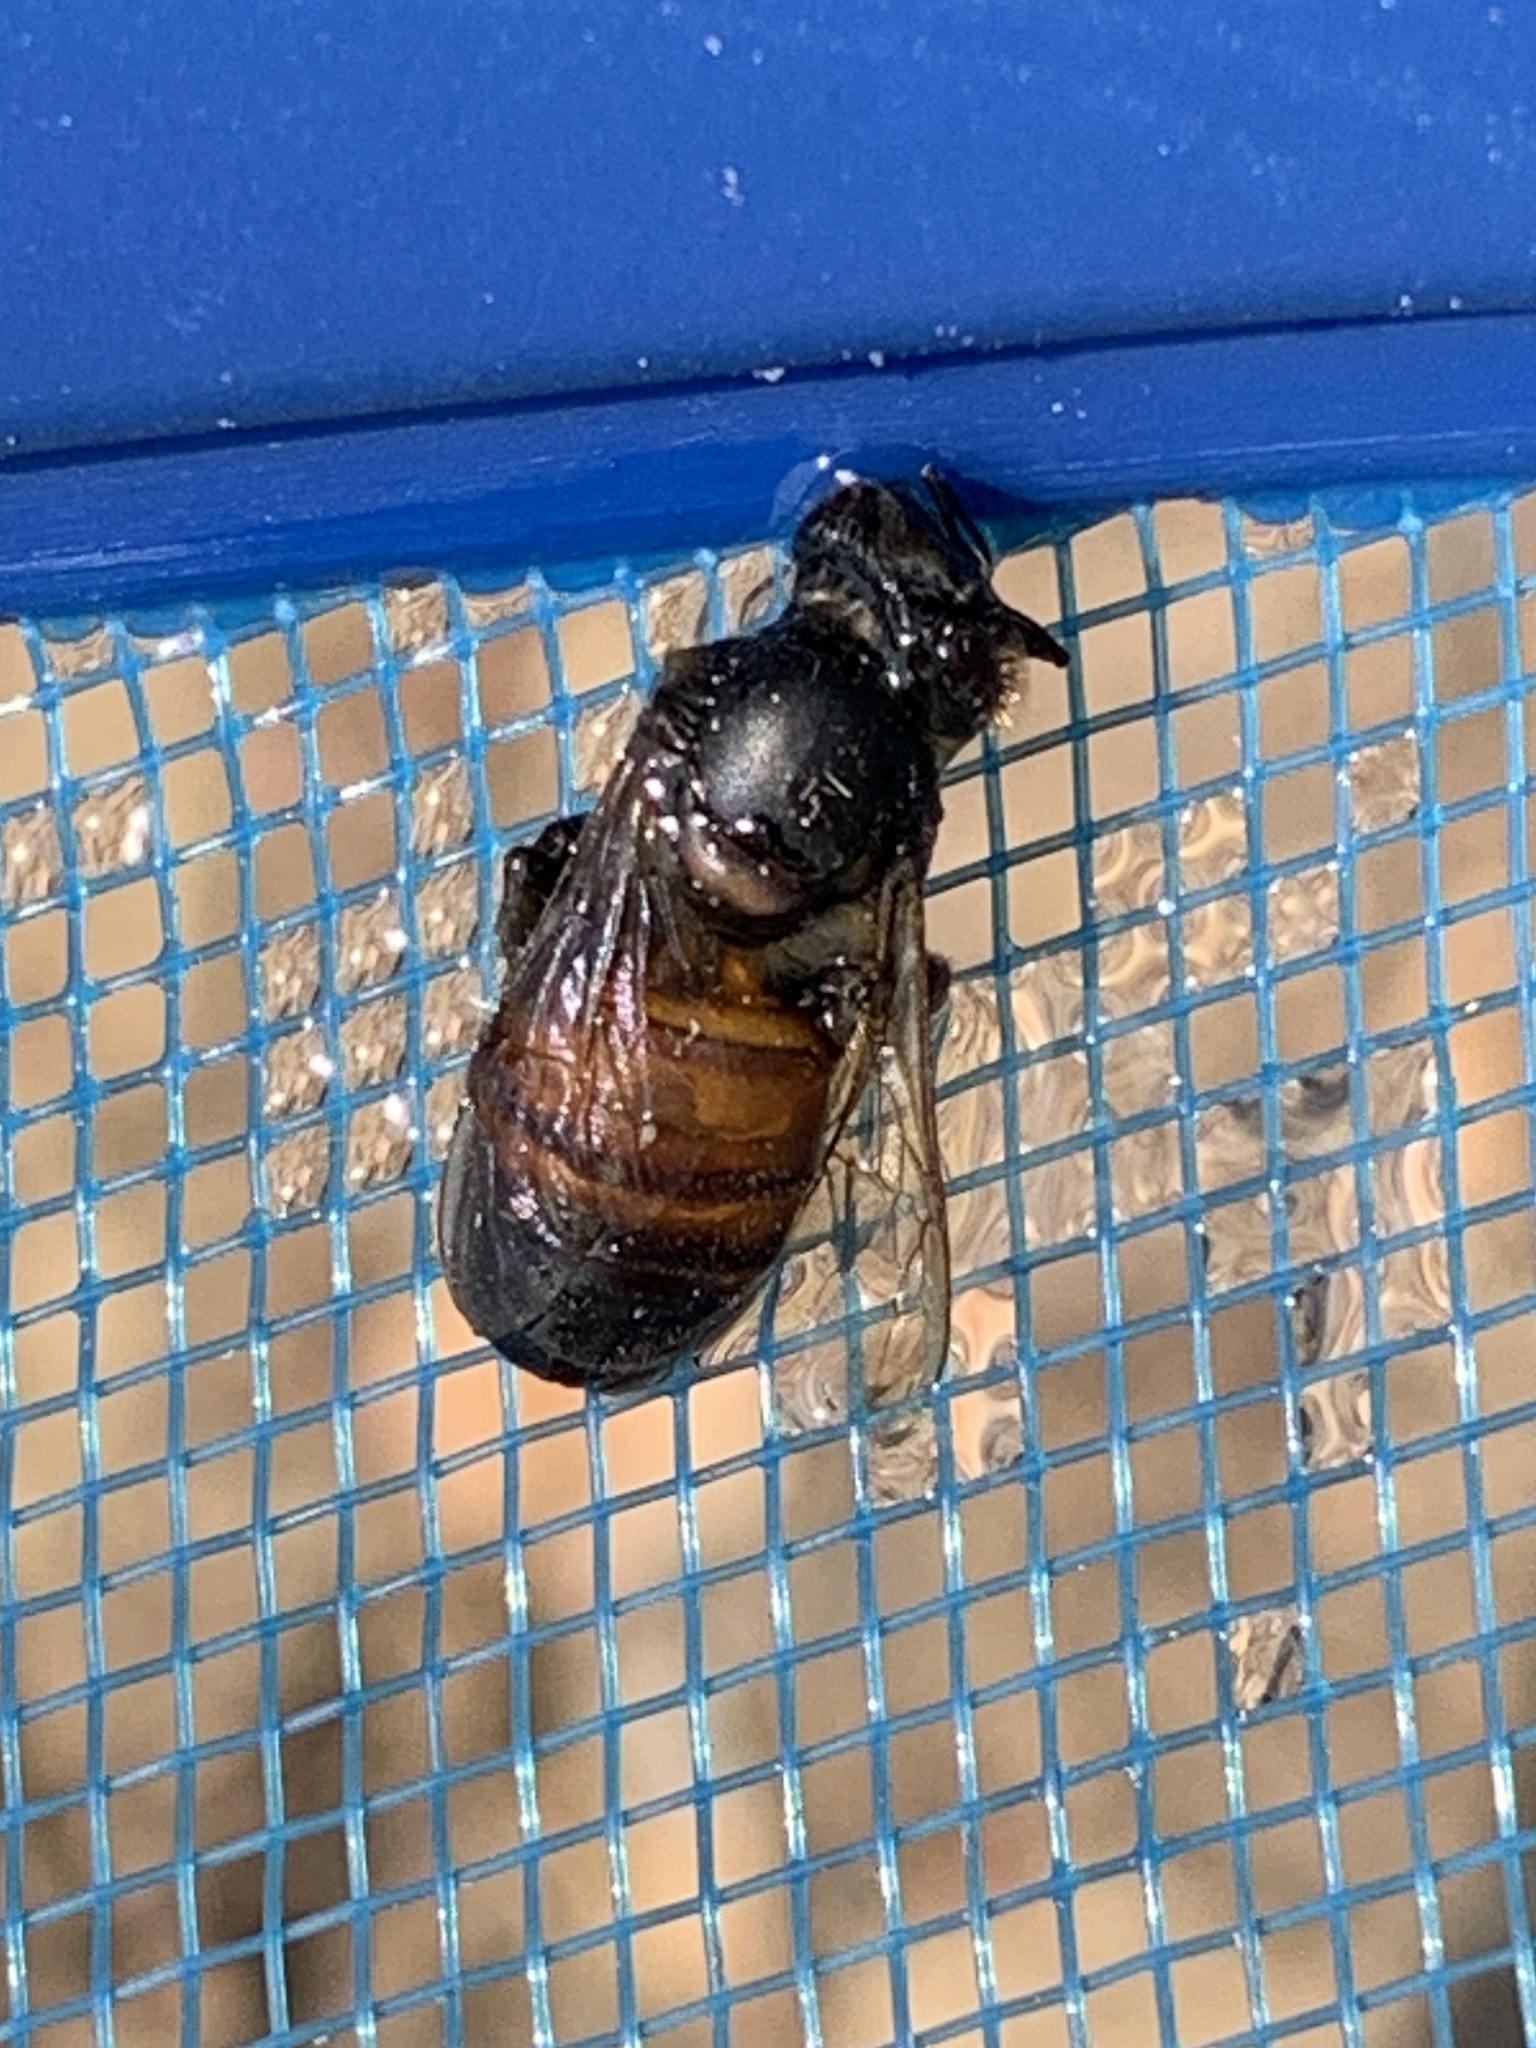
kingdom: Animalia
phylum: Arthropoda
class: Insecta
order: Hymenoptera
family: Apidae
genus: Apis
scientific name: Apis mellifera
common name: Honey bee
